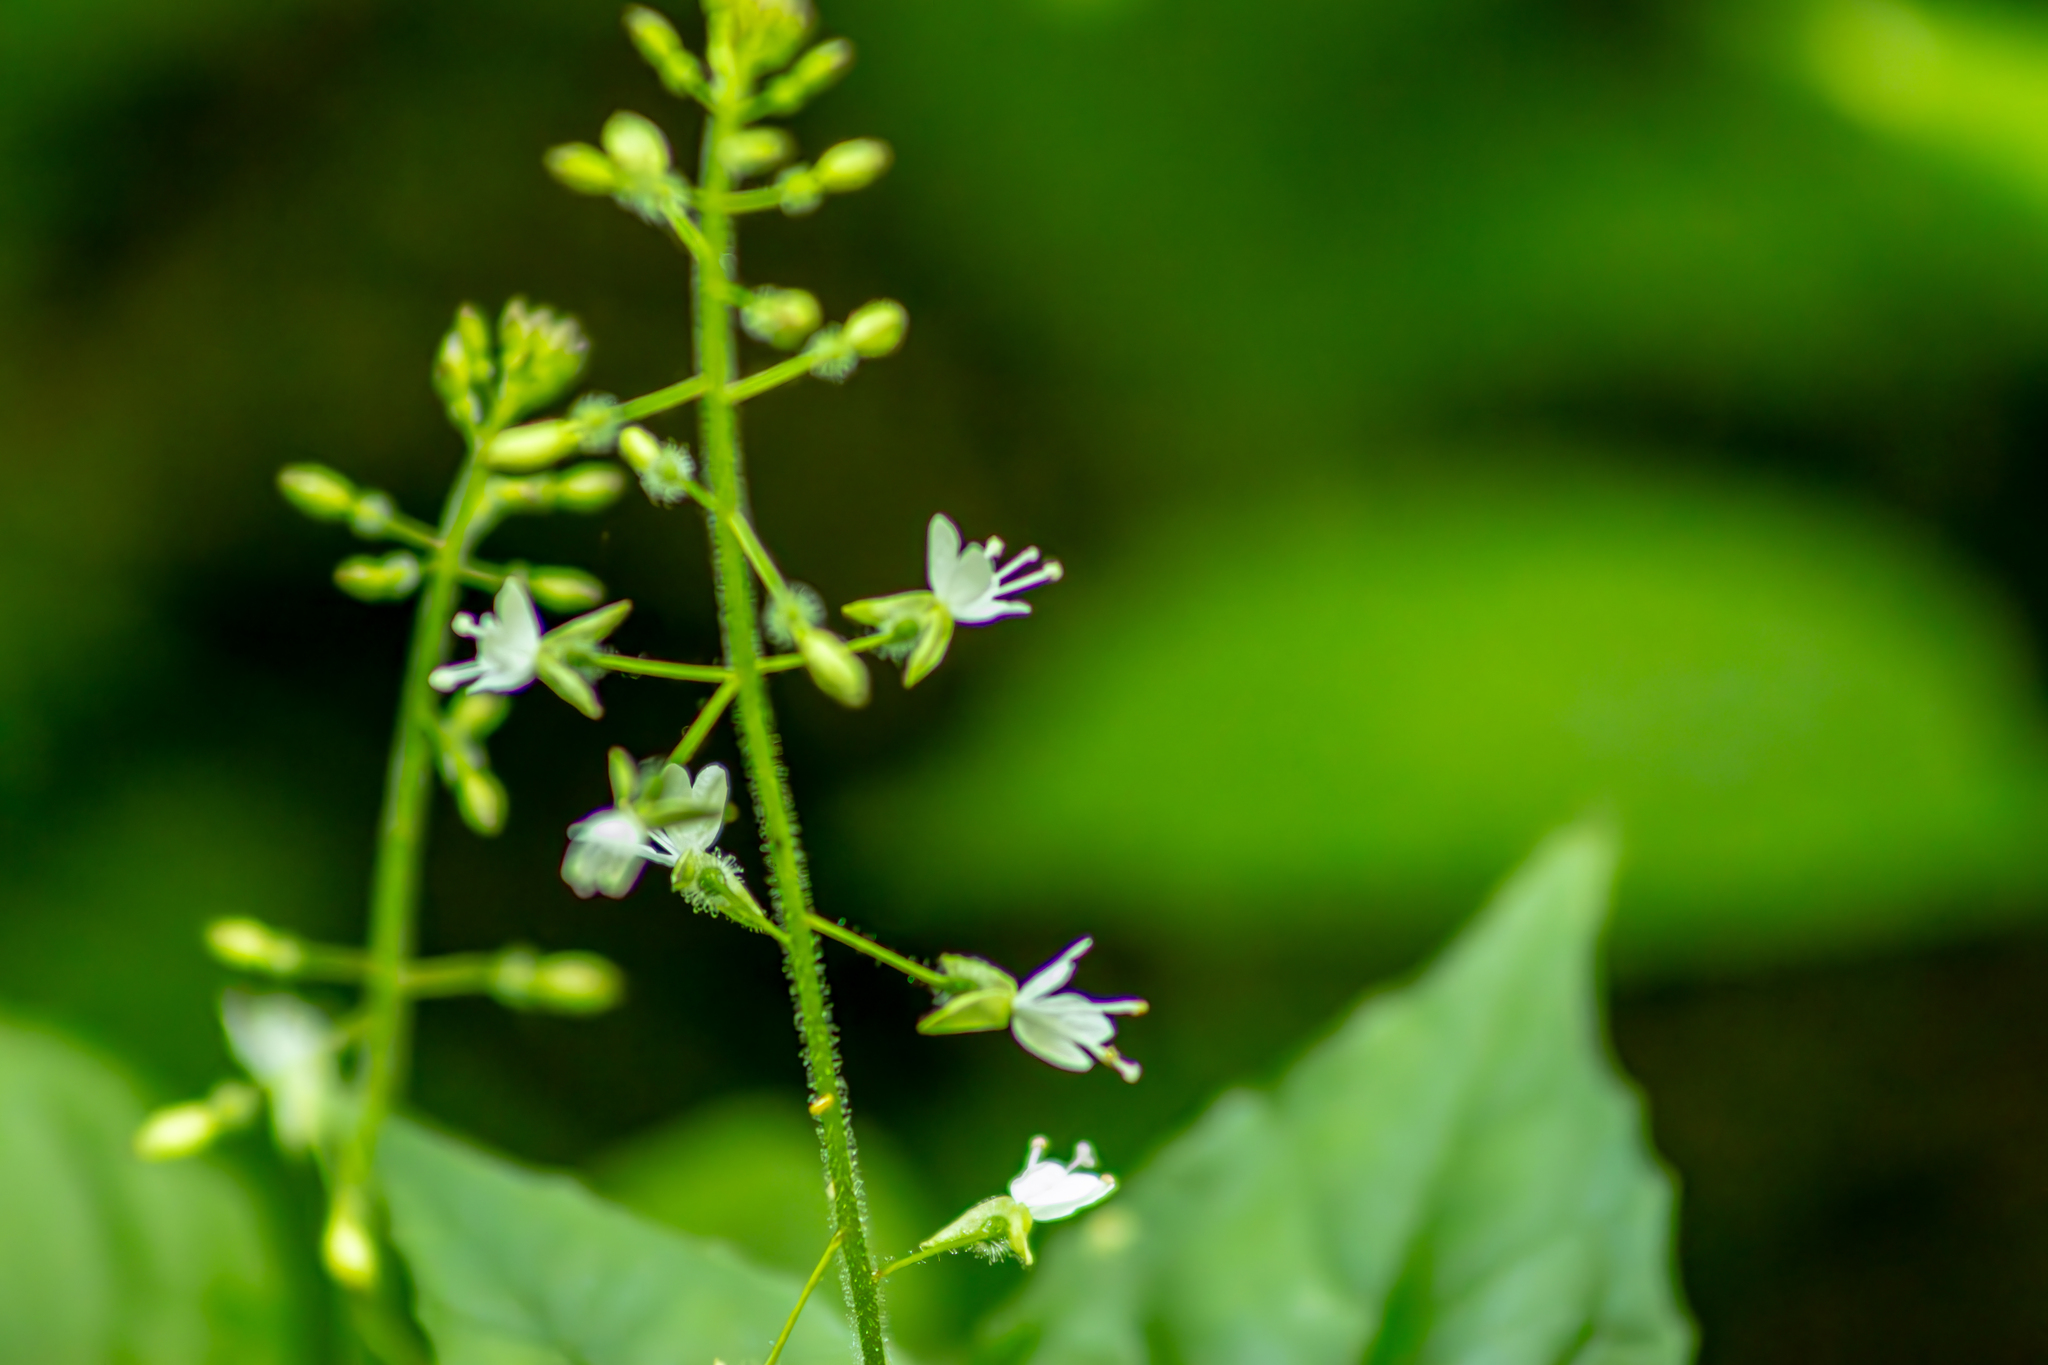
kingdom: Plantae
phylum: Tracheophyta
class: Magnoliopsida
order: Myrtales
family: Onagraceae
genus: Circaea
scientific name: Circaea lutetiana
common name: Enchanter's-nightshade
